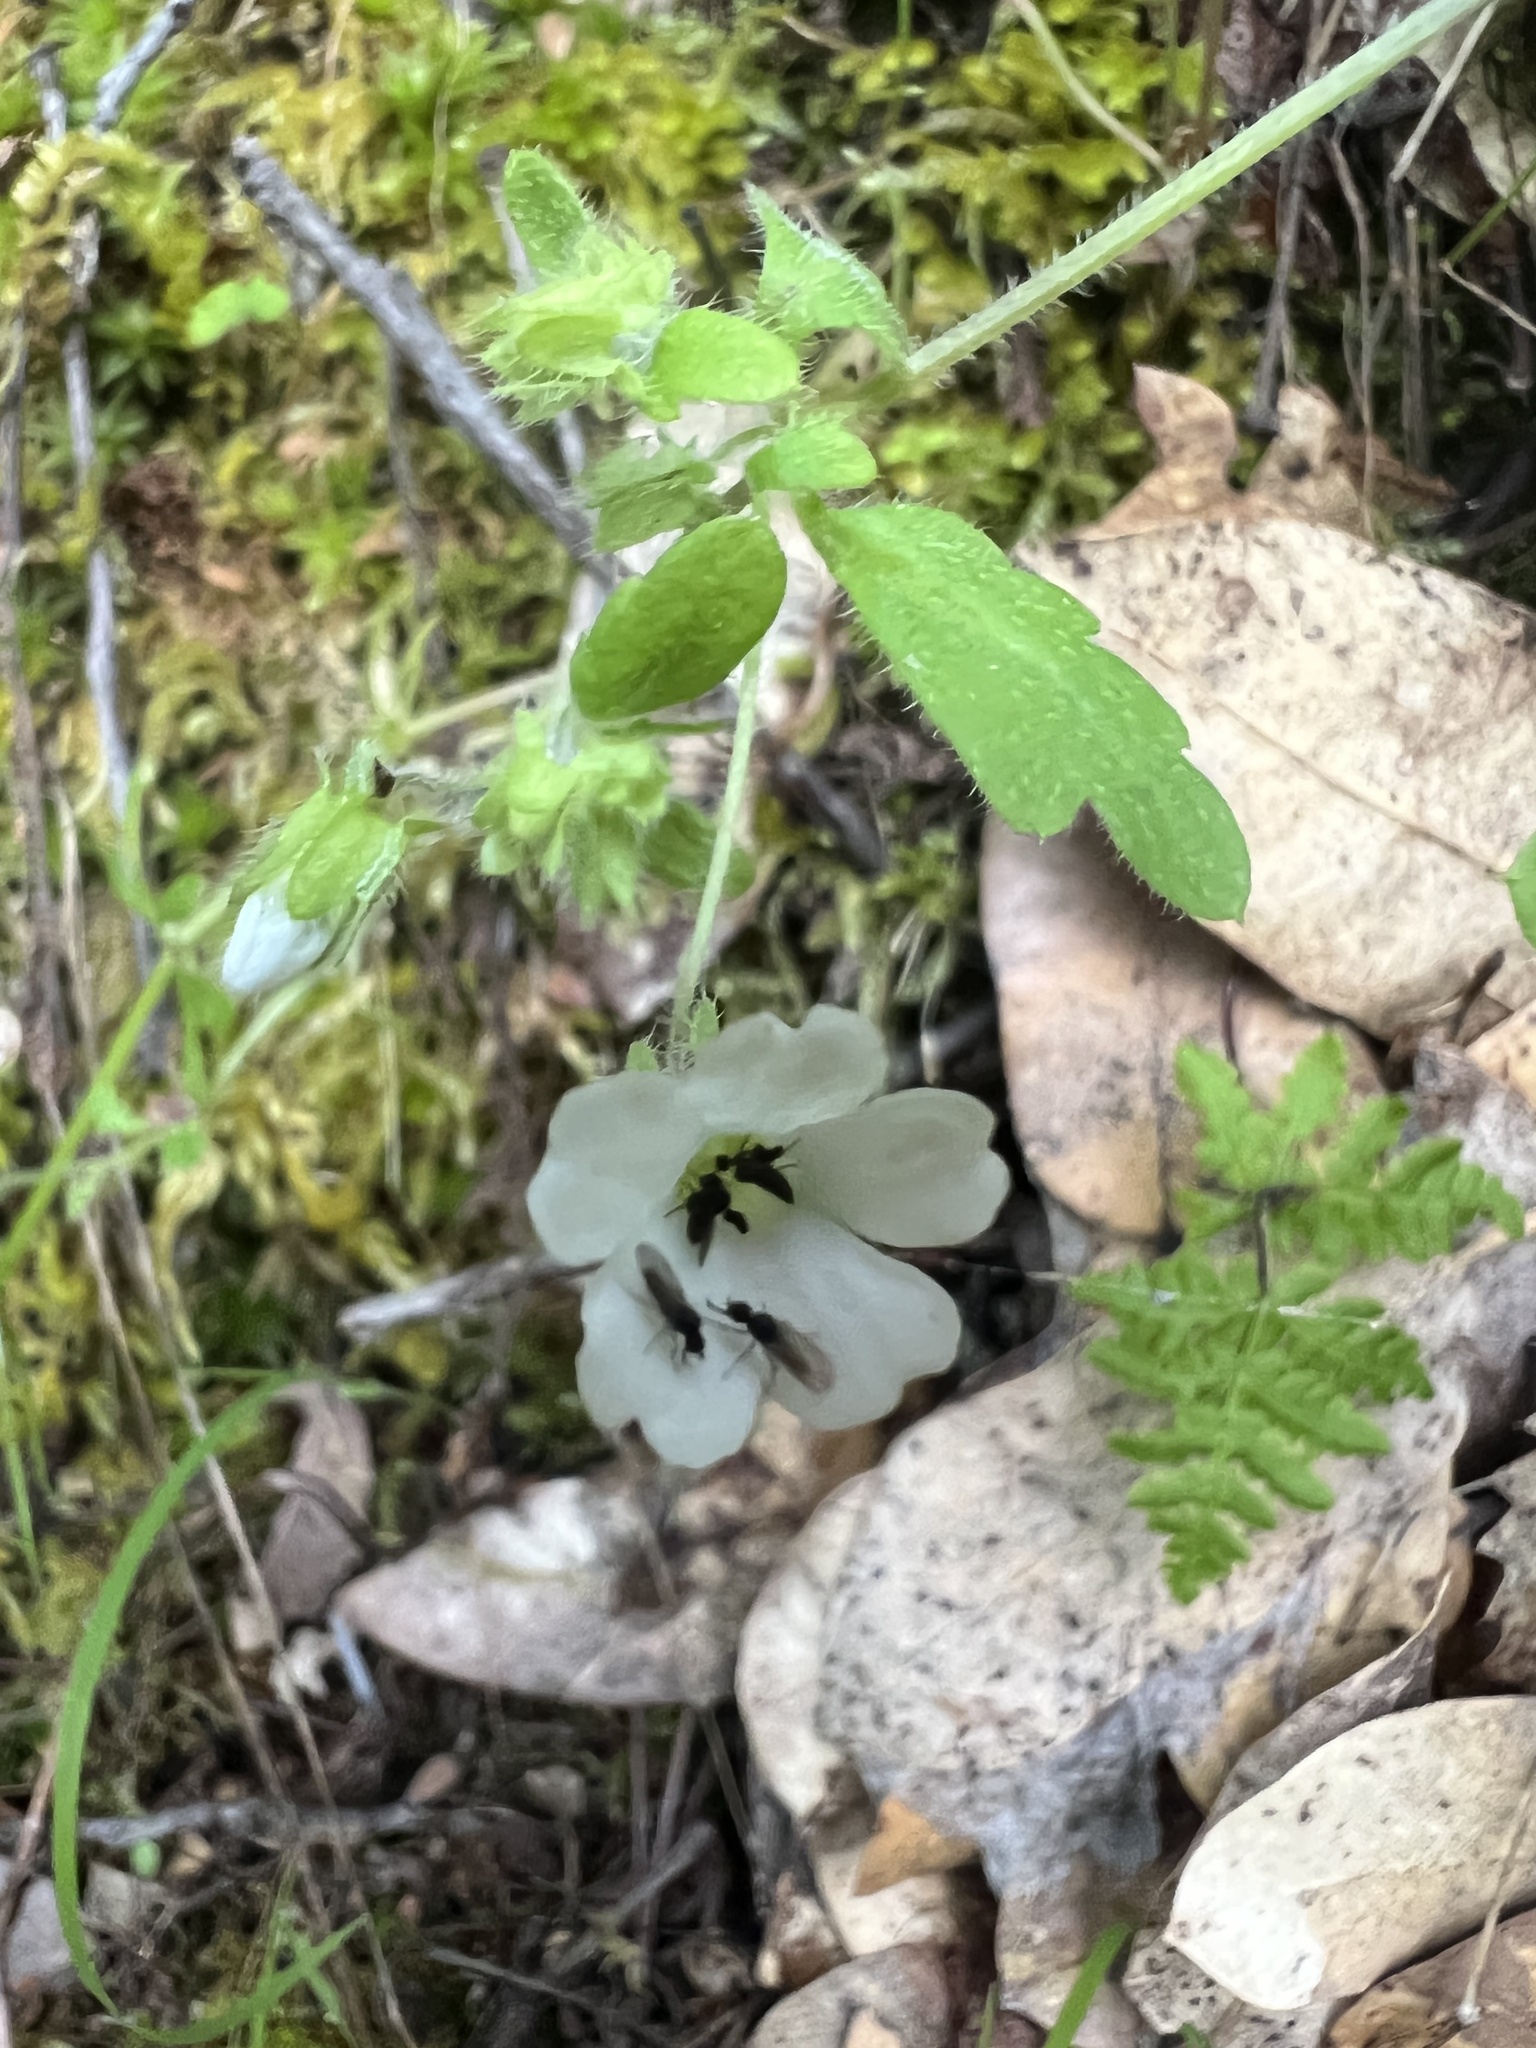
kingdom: Plantae
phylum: Tracheophyta
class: Magnoliopsida
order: Boraginales
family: Hydrophyllaceae
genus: Nemophila
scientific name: Nemophila heterophylla
